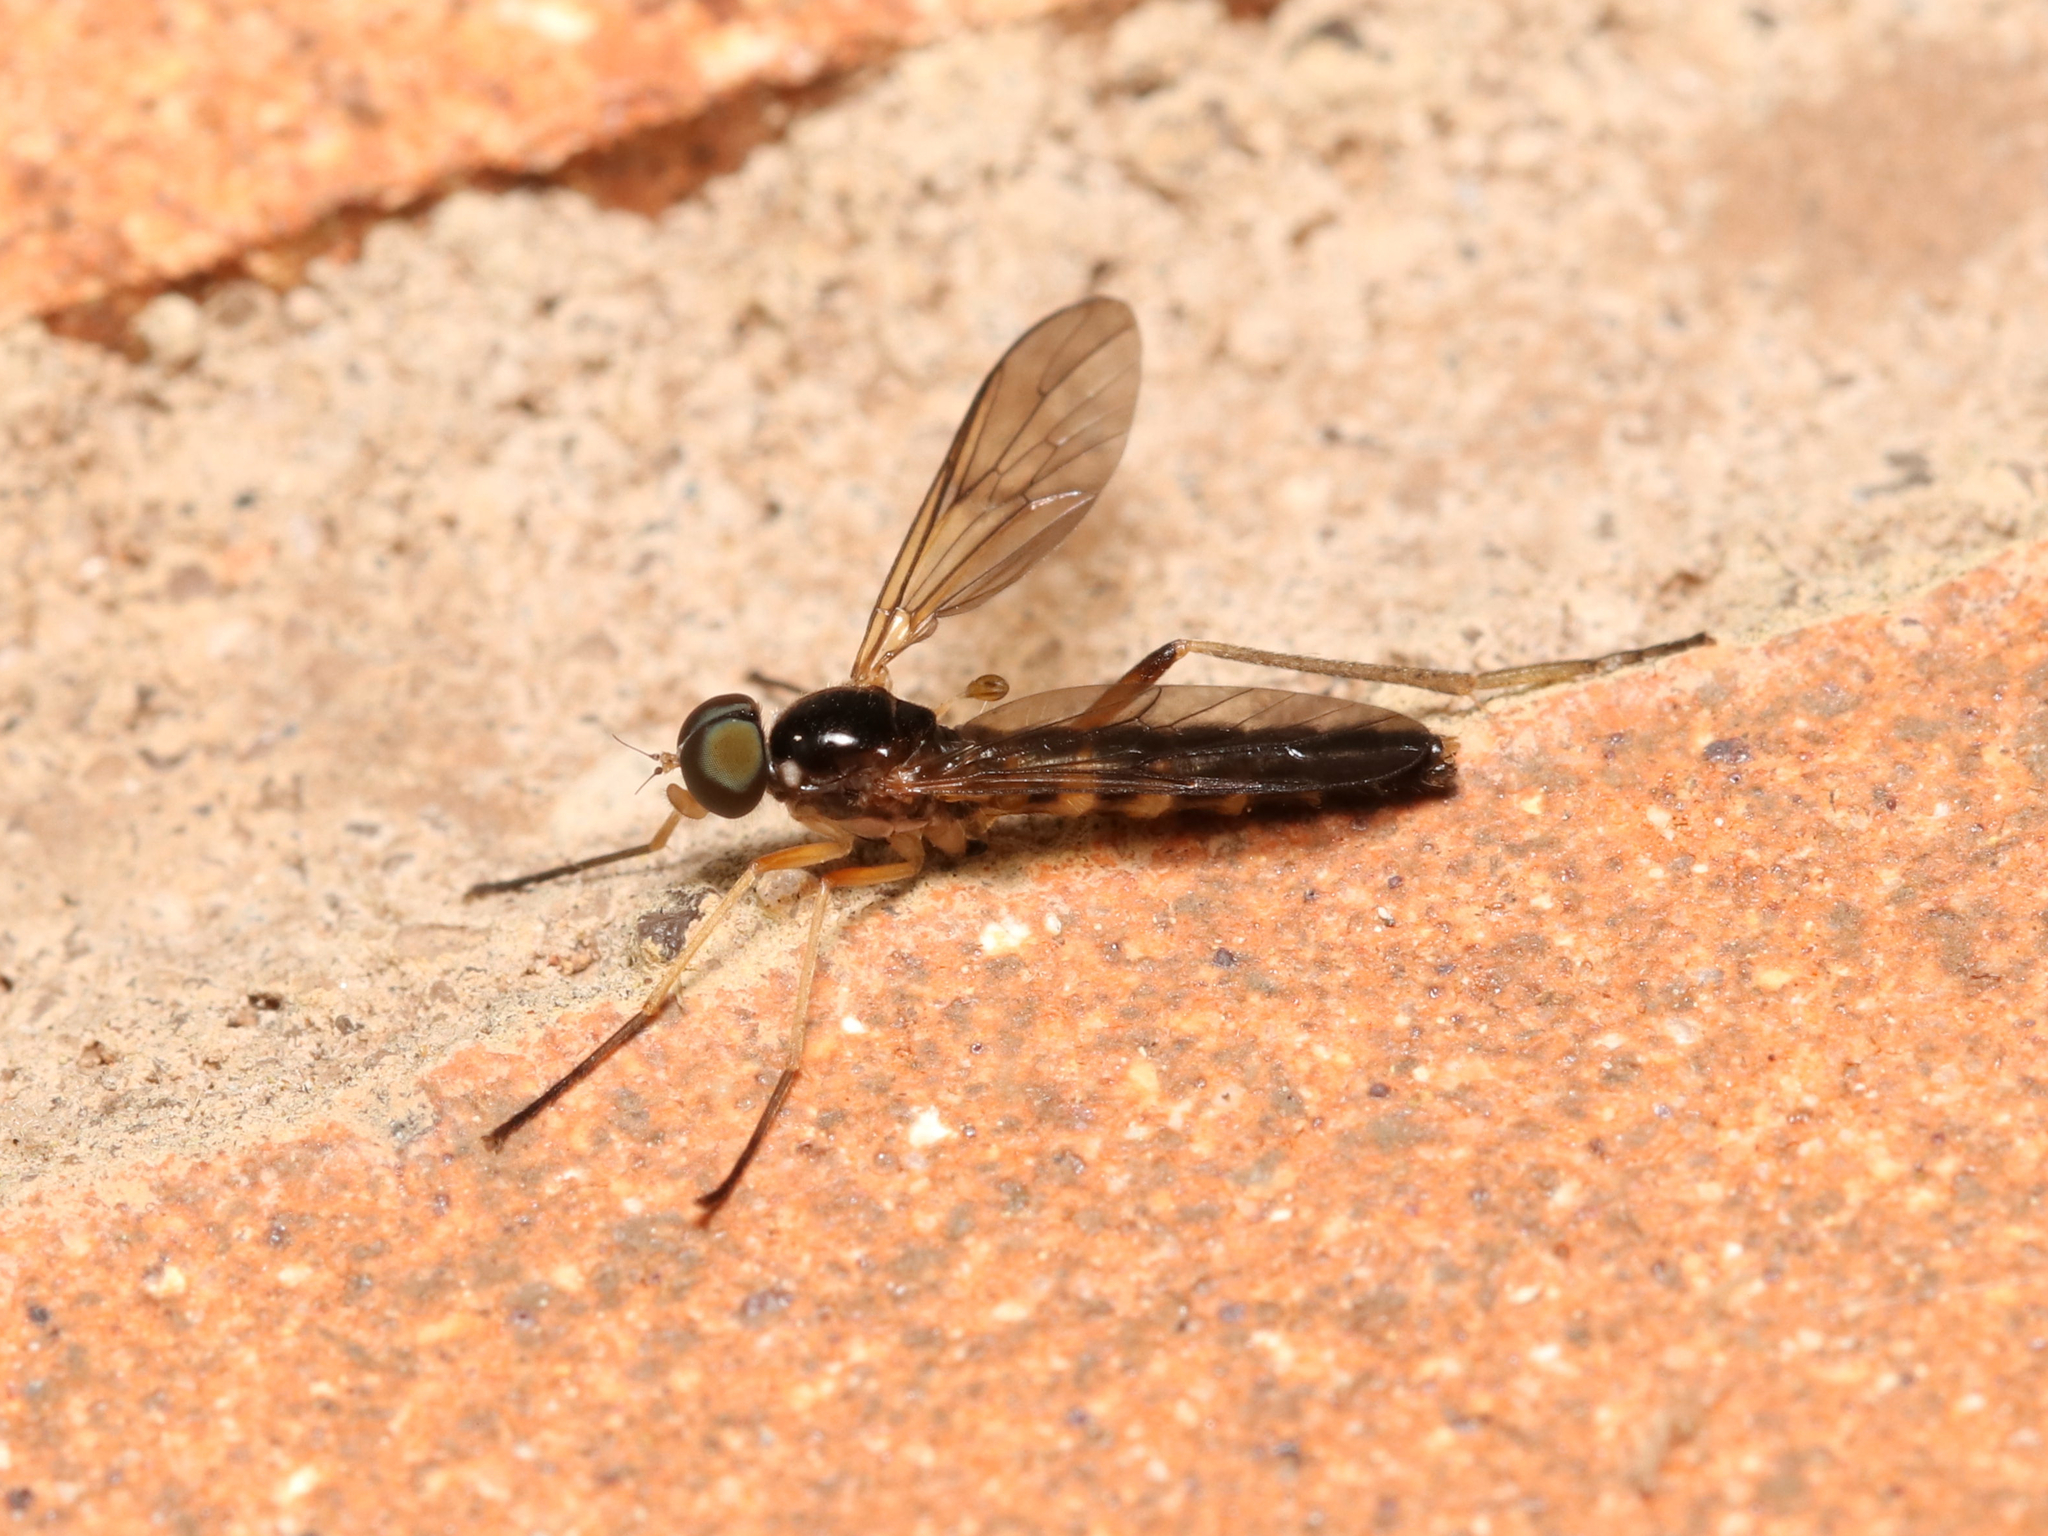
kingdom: Animalia
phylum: Arthropoda
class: Insecta
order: Diptera
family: Xylophagidae
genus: Dialysis
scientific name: Dialysis elongata
